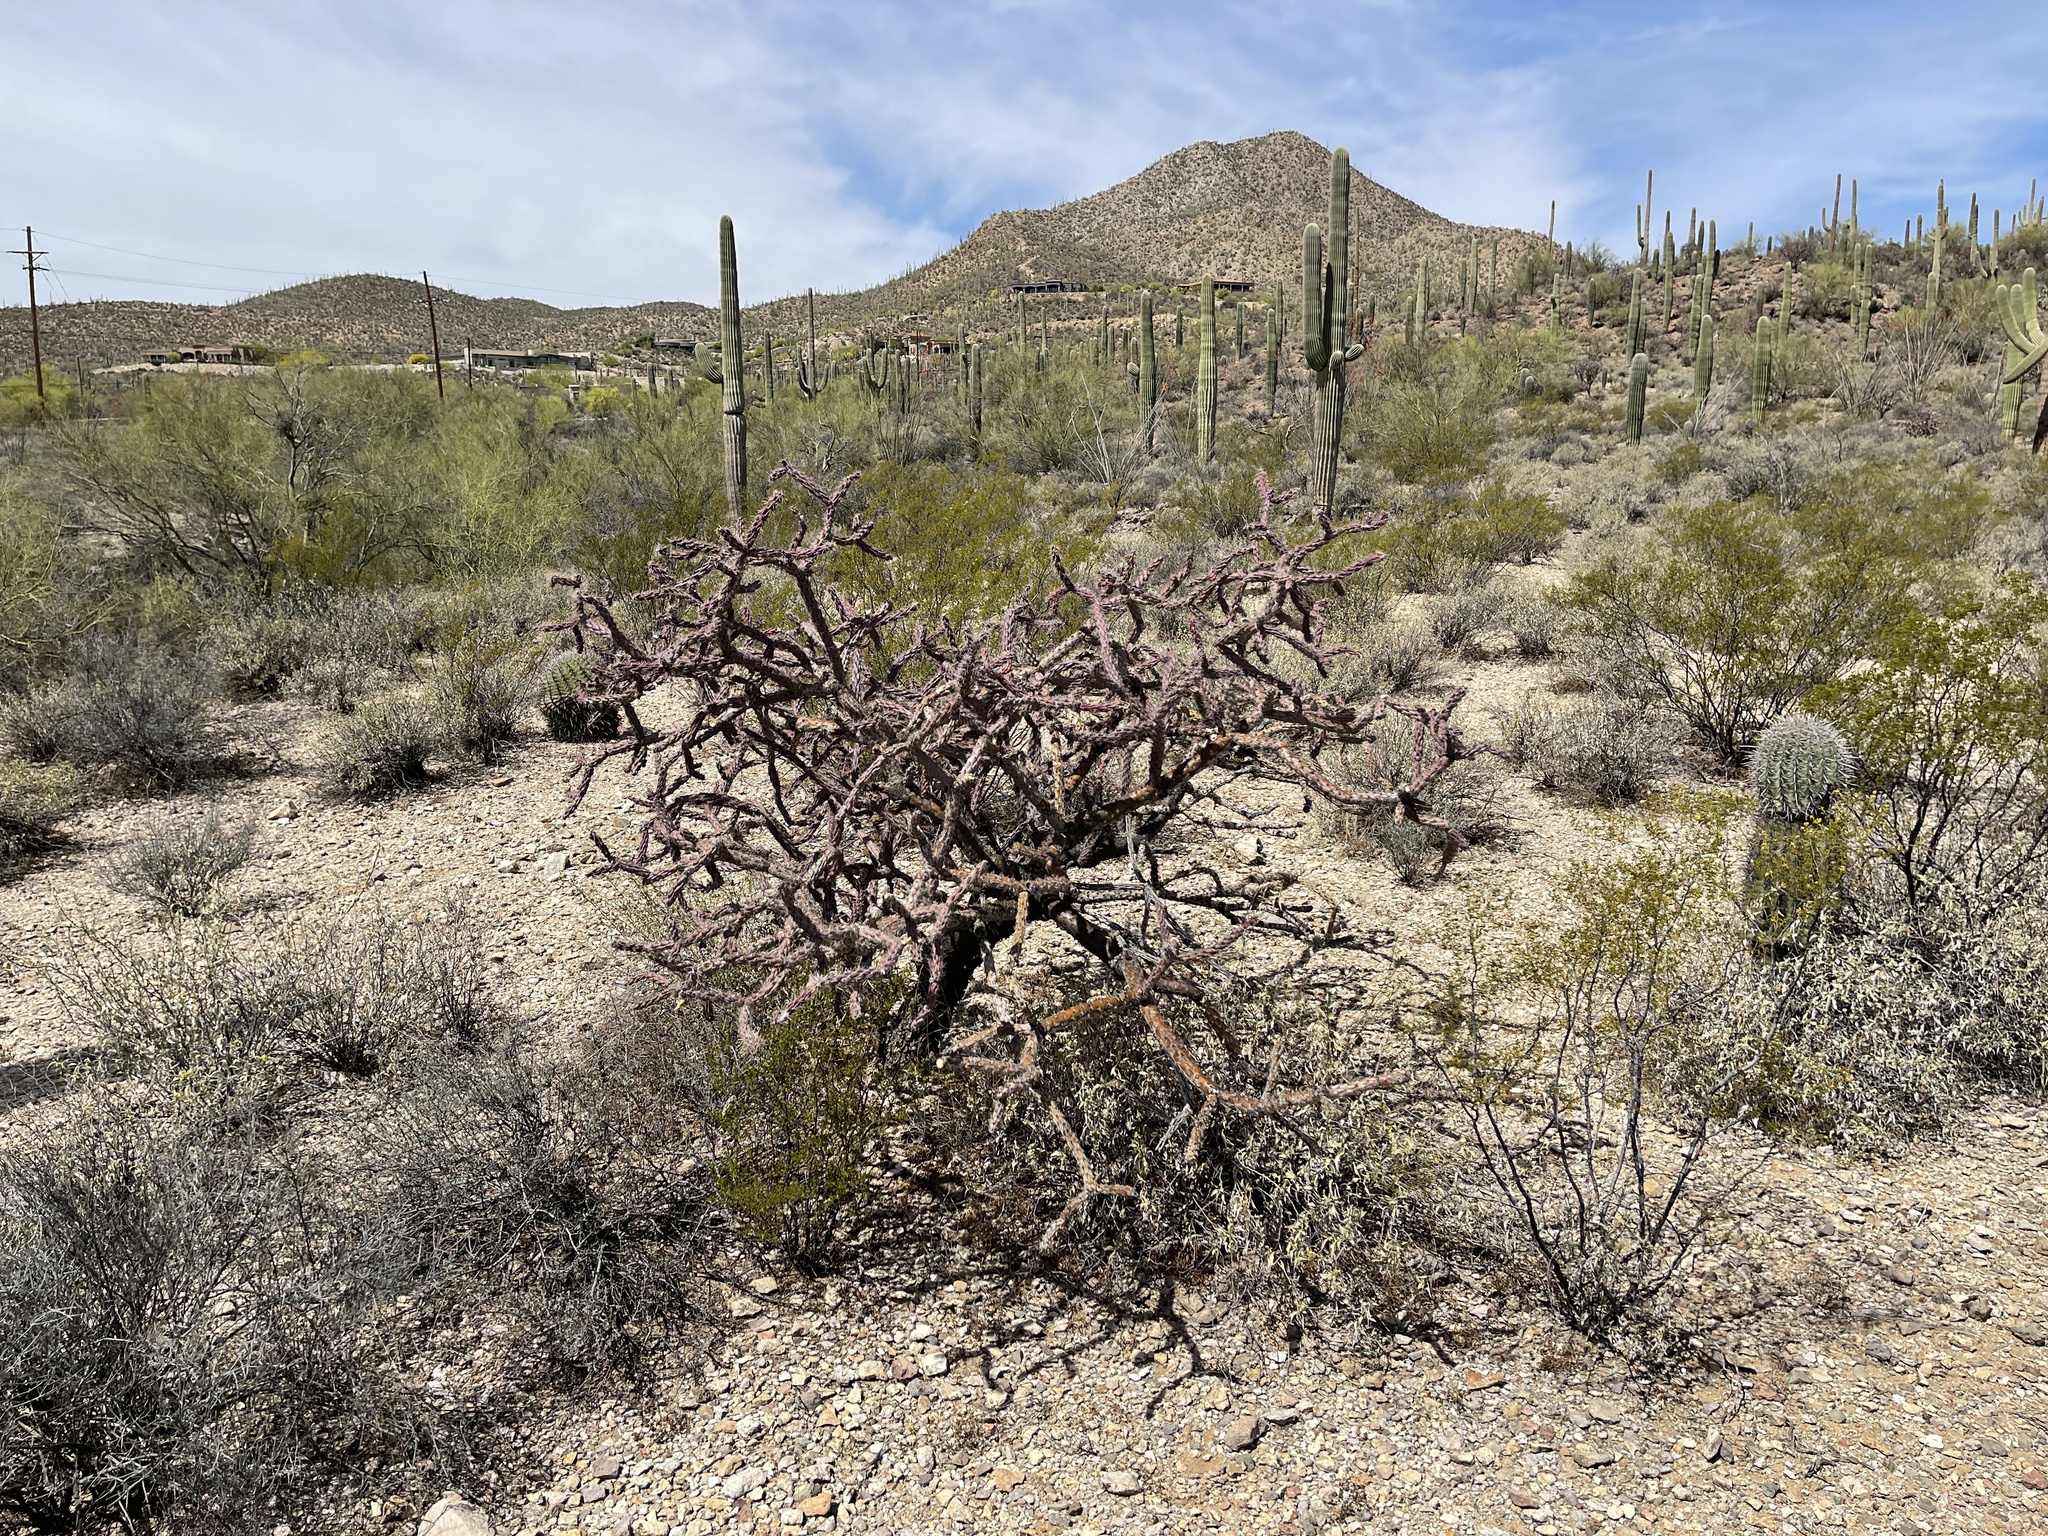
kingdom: Plantae
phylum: Tracheophyta
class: Magnoliopsida
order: Caryophyllales
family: Cactaceae
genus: Cylindropuntia
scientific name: Cylindropuntia thurberi
